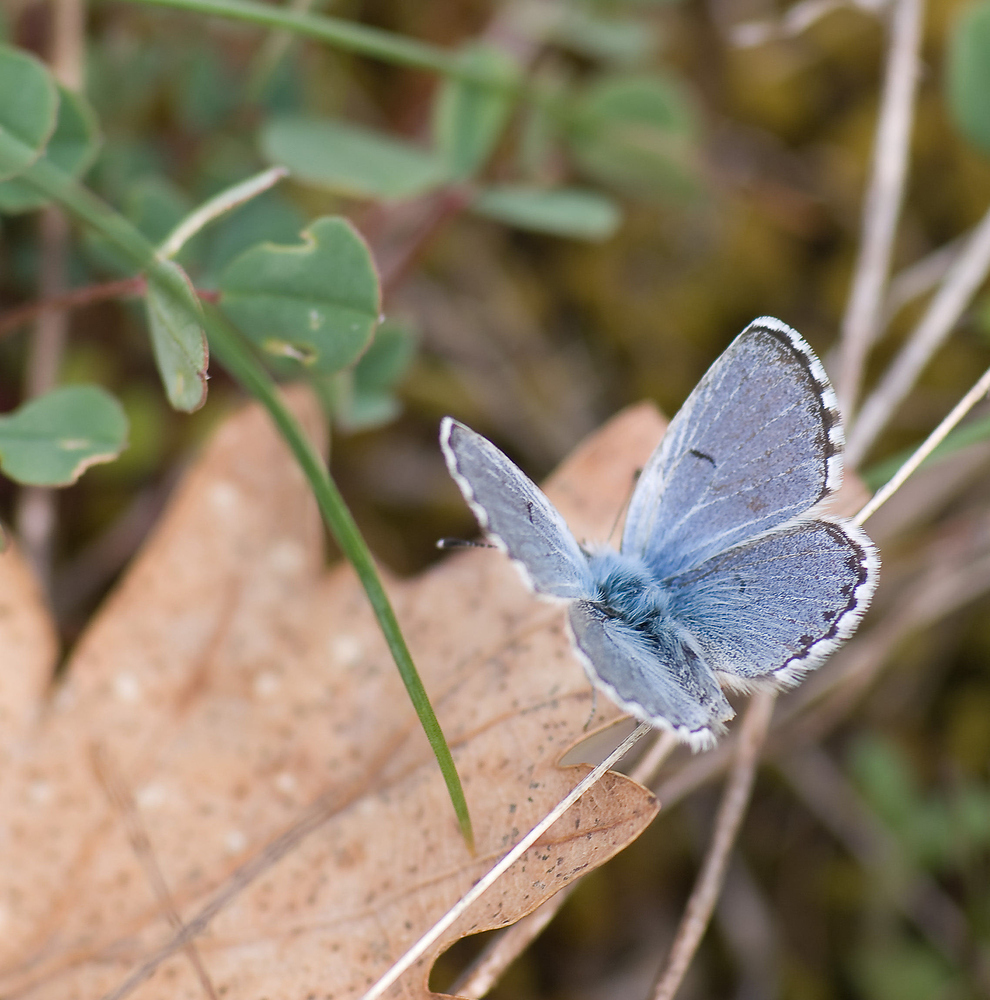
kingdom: Animalia
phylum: Arthropoda
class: Insecta
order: Lepidoptera
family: Lycaenidae
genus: Pseudophilotes
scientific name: Pseudophilotes baton
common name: Baton blue
